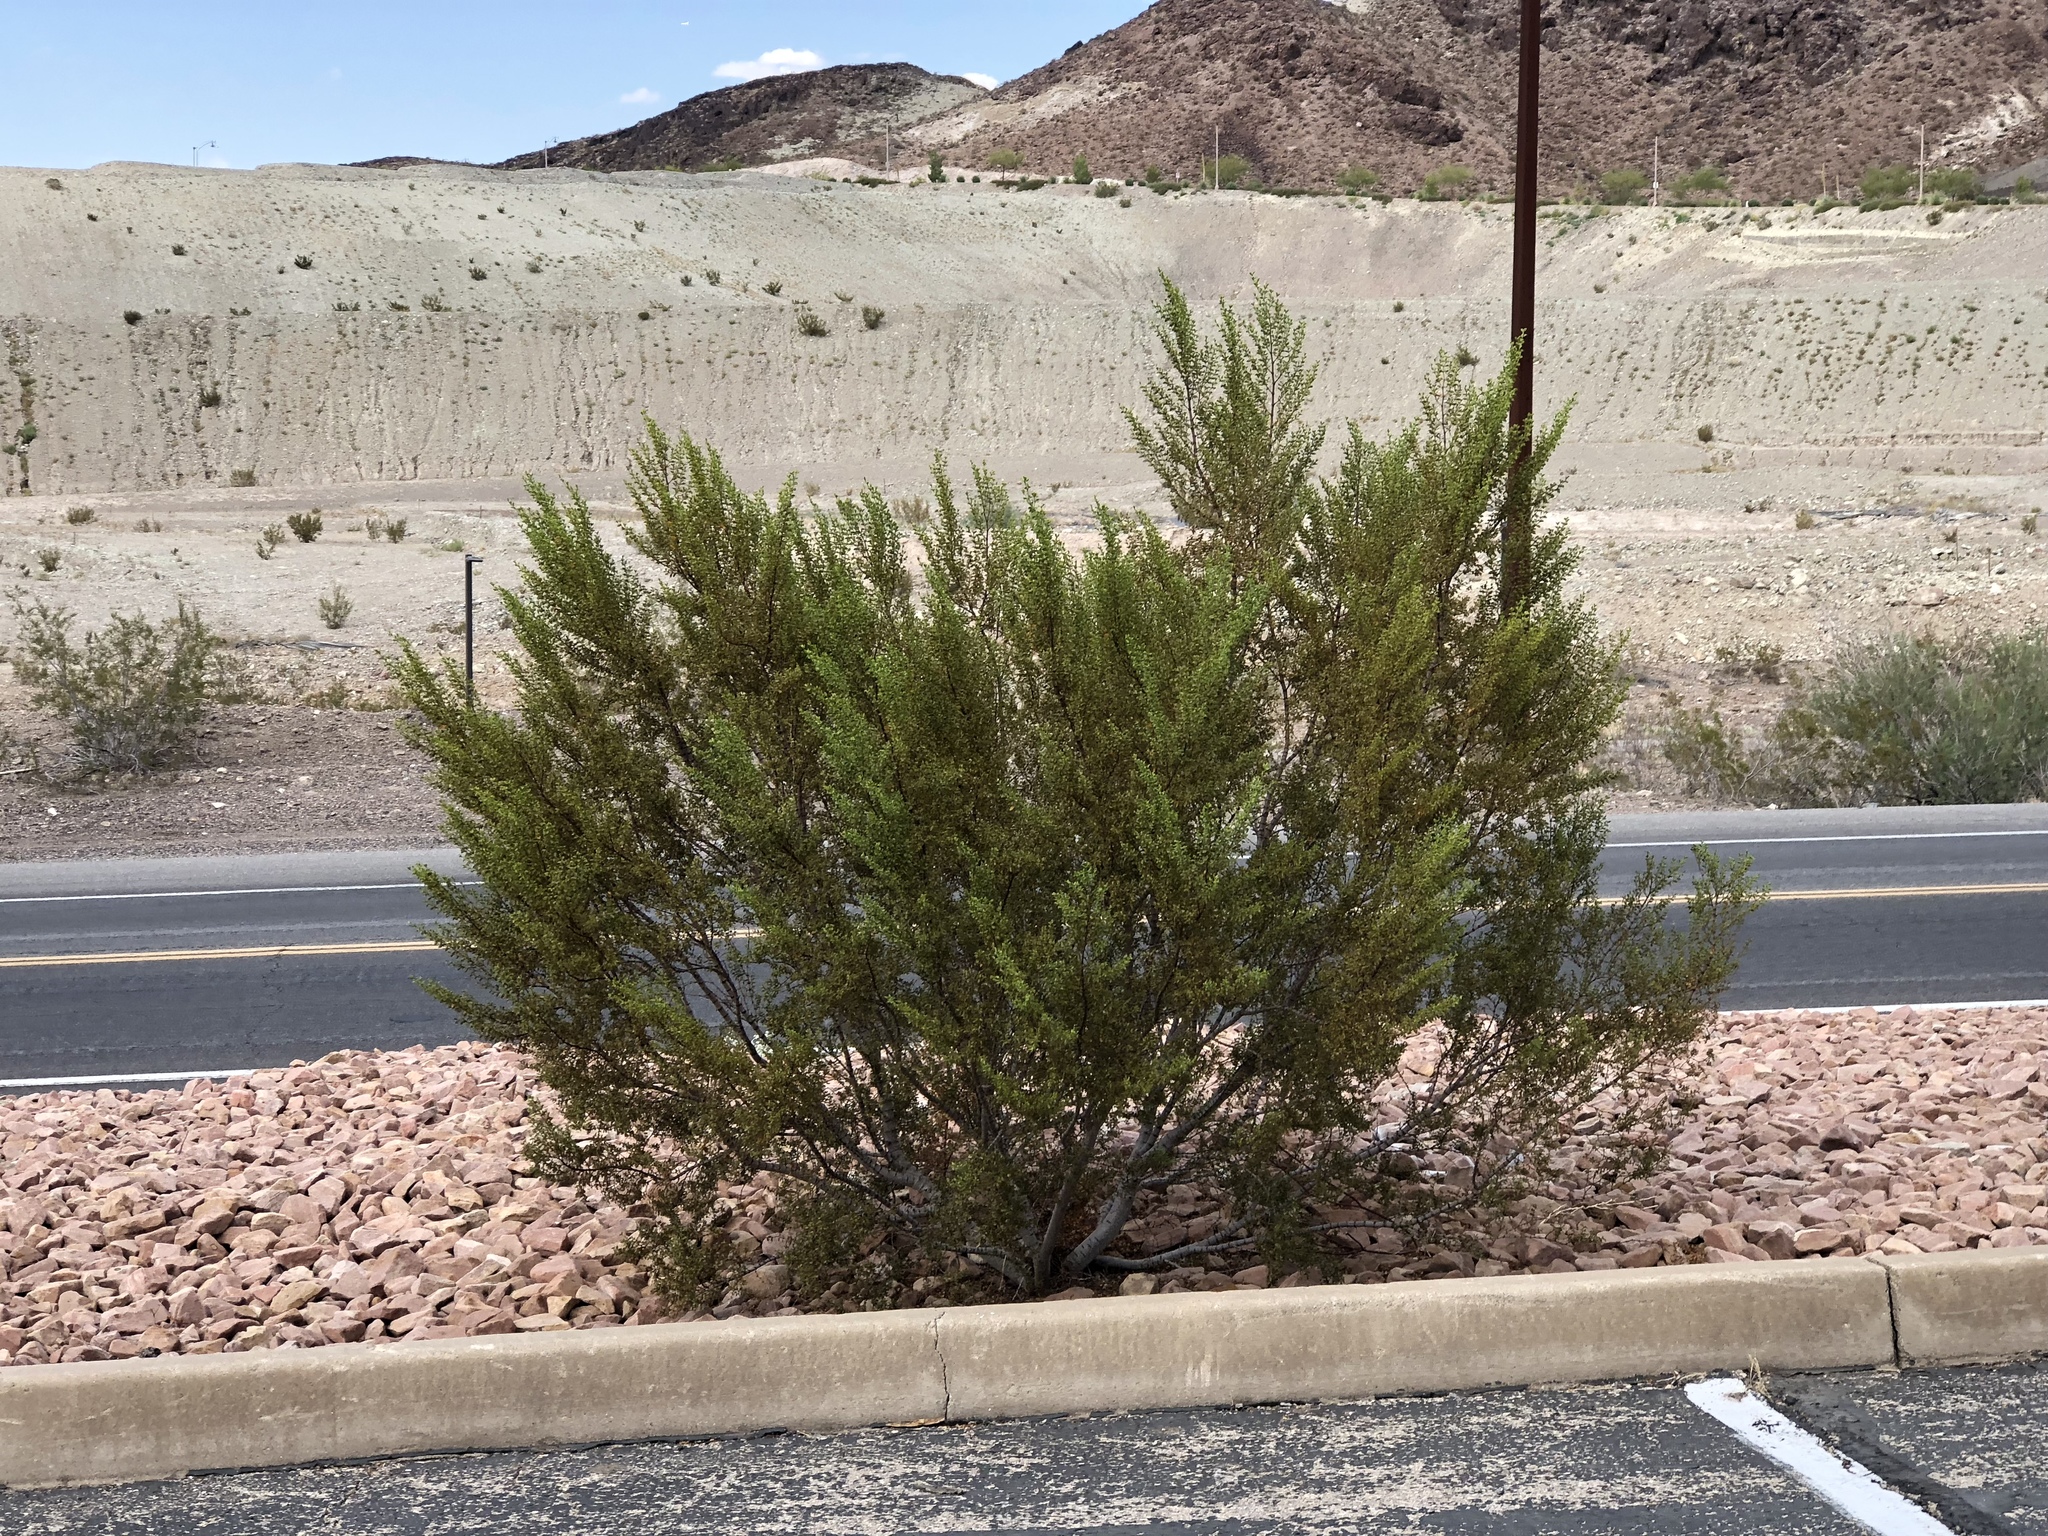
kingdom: Plantae
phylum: Tracheophyta
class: Magnoliopsida
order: Zygophyllales
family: Zygophyllaceae
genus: Larrea
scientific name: Larrea tridentata
